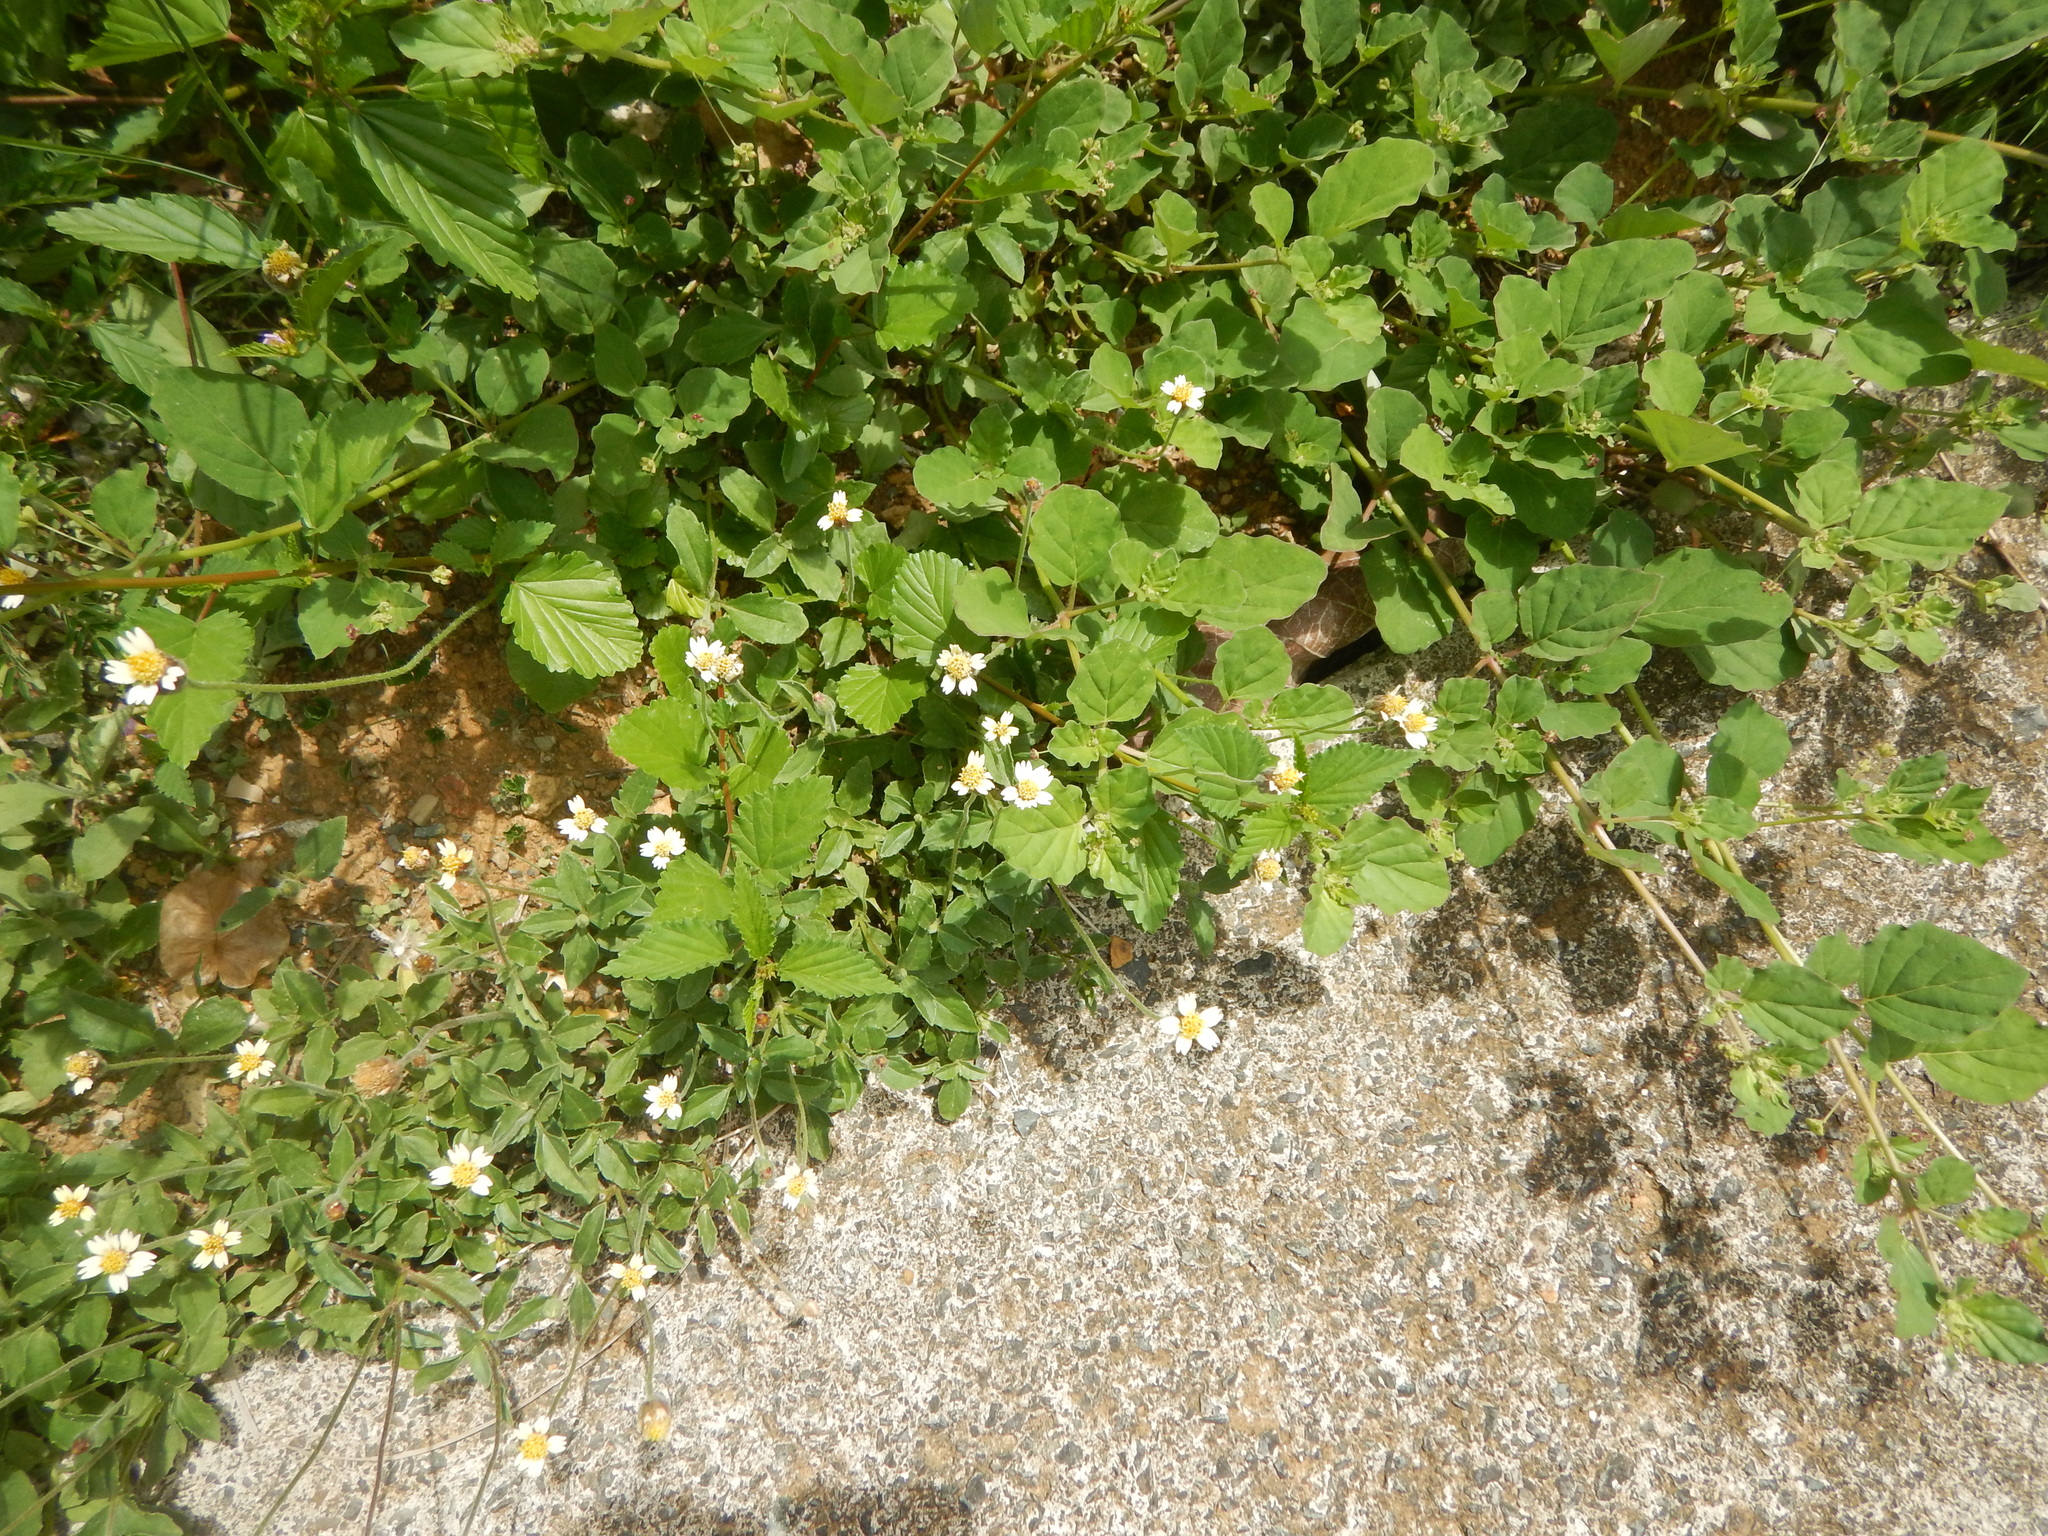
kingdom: Plantae
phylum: Tracheophyta
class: Magnoliopsida
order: Asterales
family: Asteraceae
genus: Tridax
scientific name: Tridax procumbens
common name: Coatbuttons
